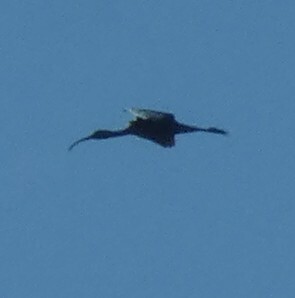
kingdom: Animalia
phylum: Chordata
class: Aves
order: Pelecaniformes
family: Threskiornithidae
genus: Plegadis
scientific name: Plegadis falcinellus
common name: Glossy ibis
